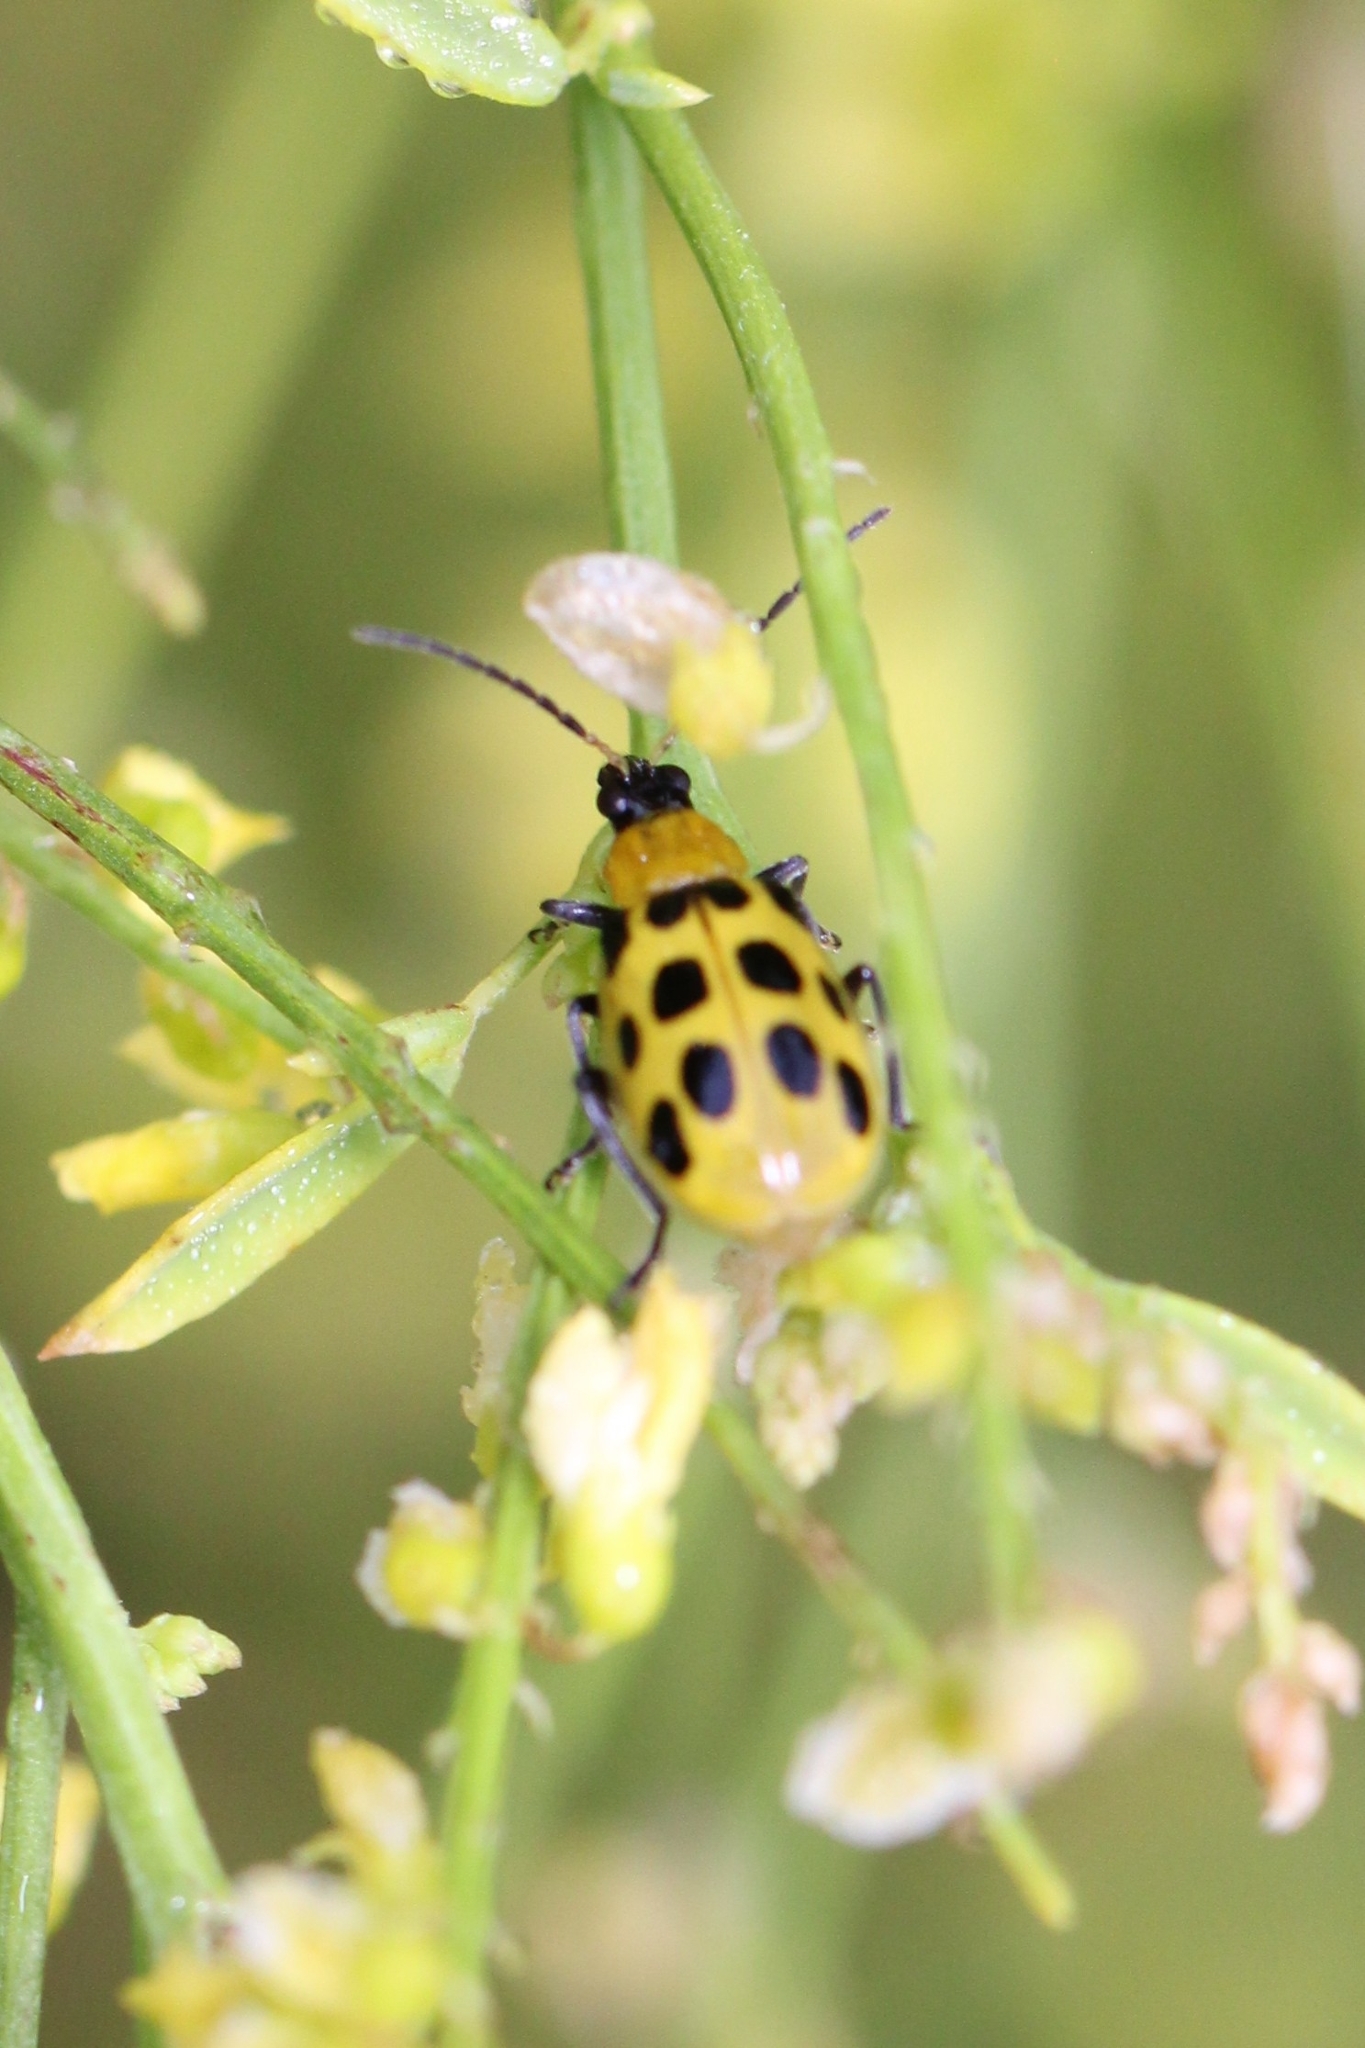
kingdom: Animalia
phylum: Arthropoda
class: Insecta
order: Coleoptera
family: Chrysomelidae
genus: Diabrotica
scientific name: Diabrotica undecimpunctata
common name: Spotted cucumber beetle
